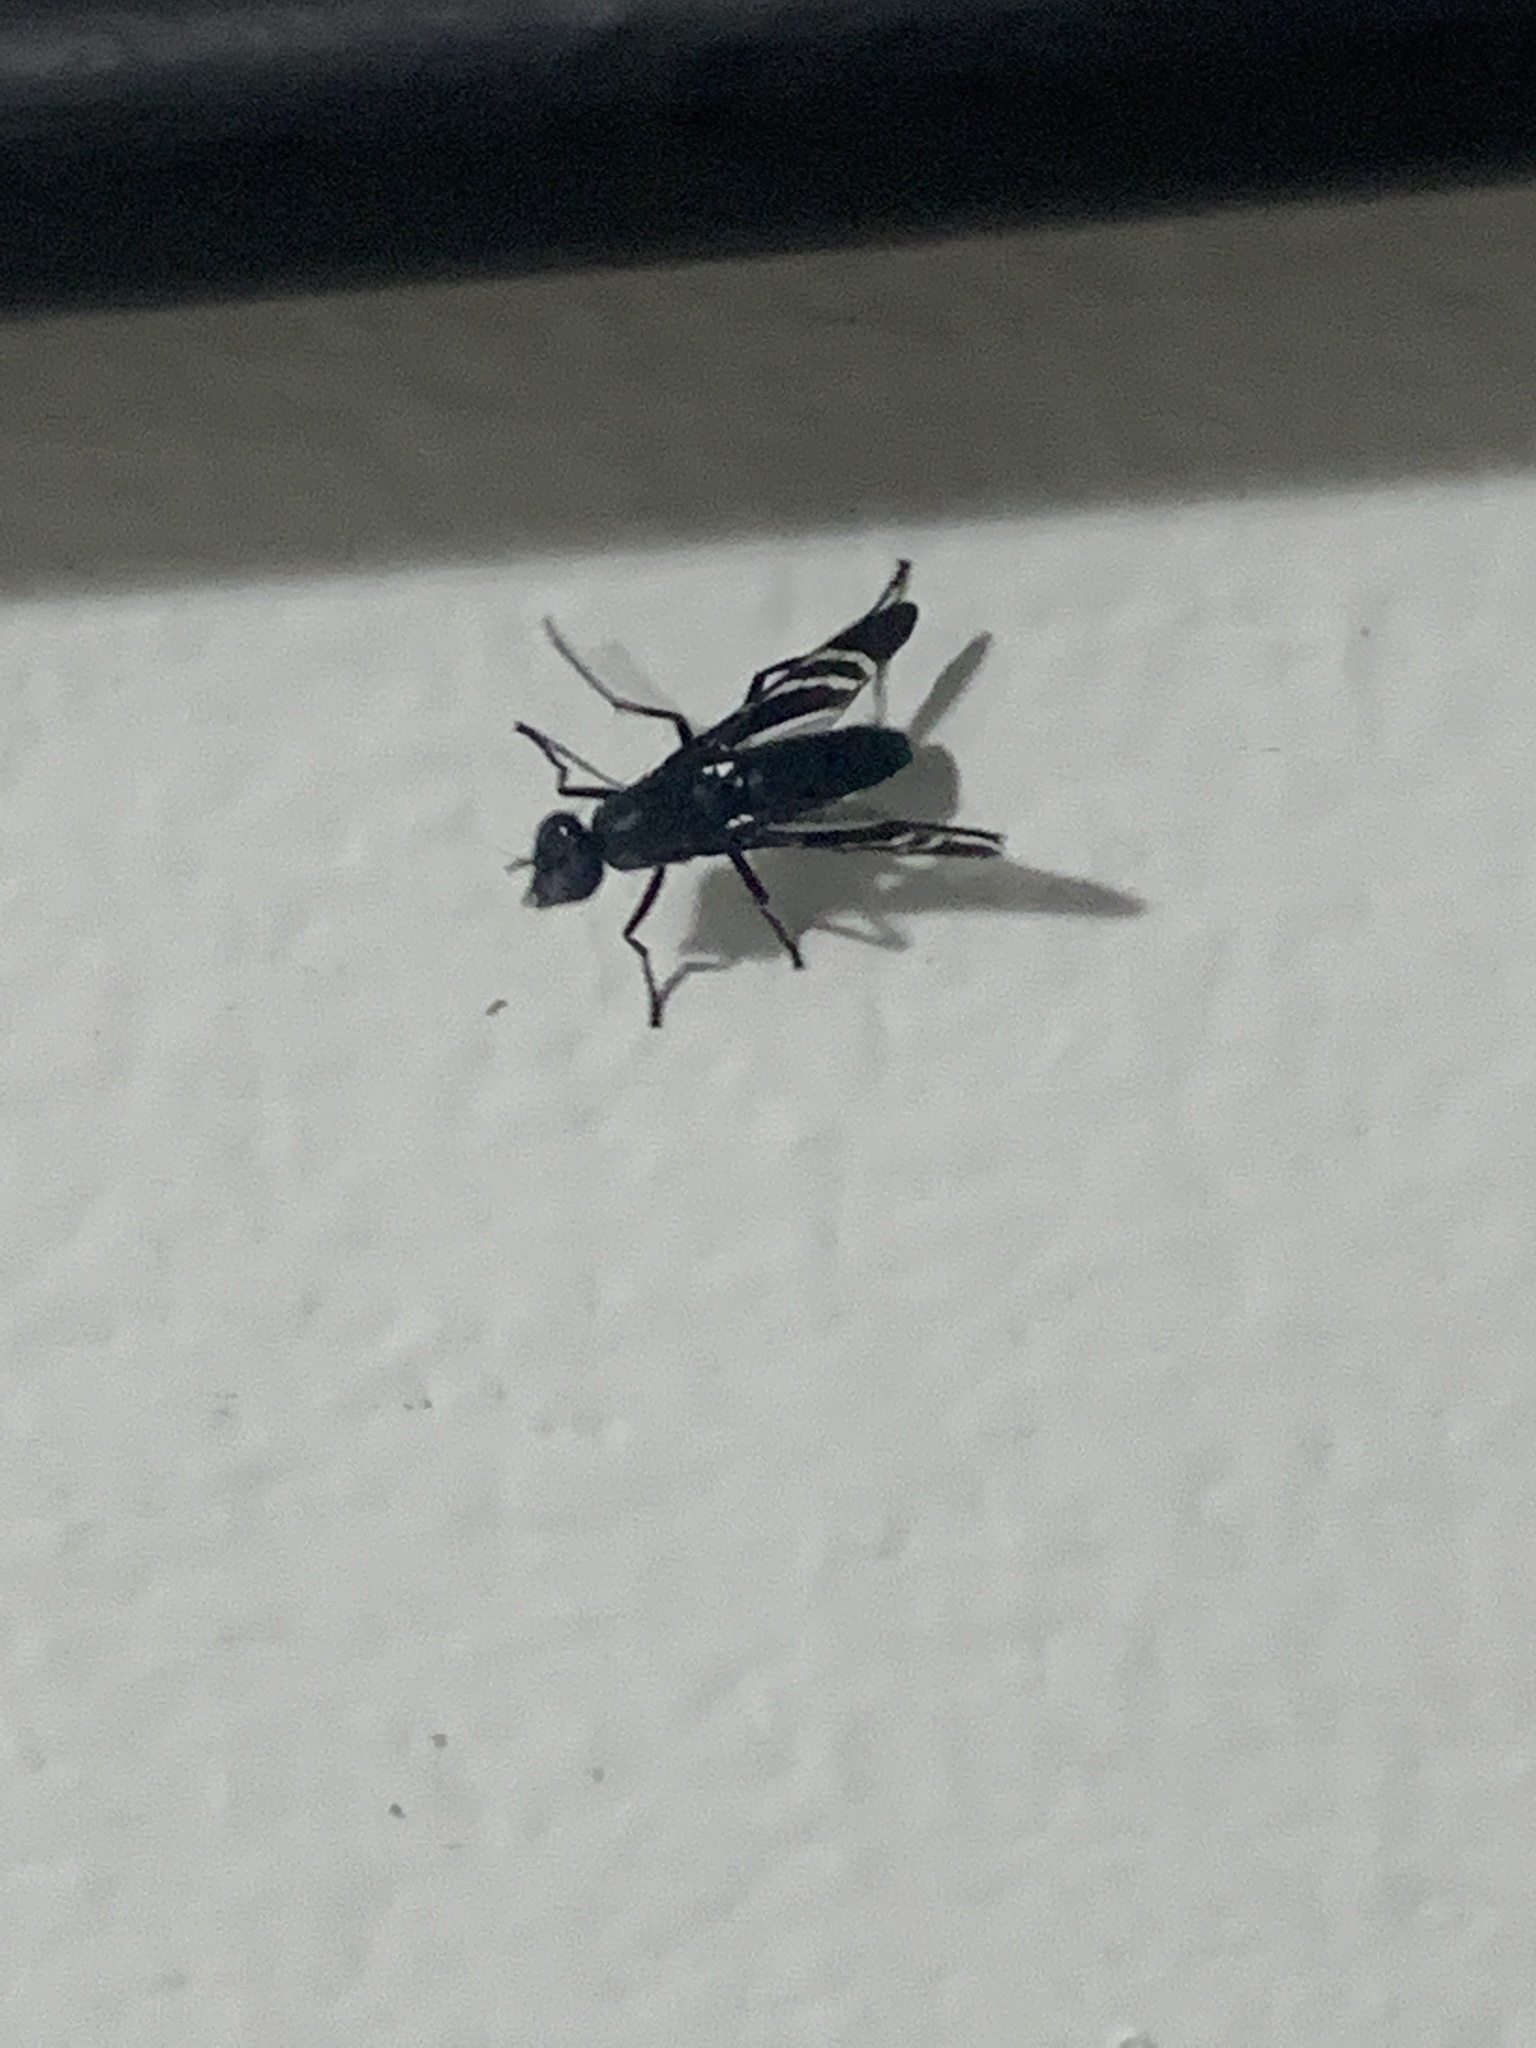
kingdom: Animalia
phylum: Arthropoda
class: Insecta
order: Diptera
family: Ulidiidae
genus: Tritoxa
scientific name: Tritoxa flexa
